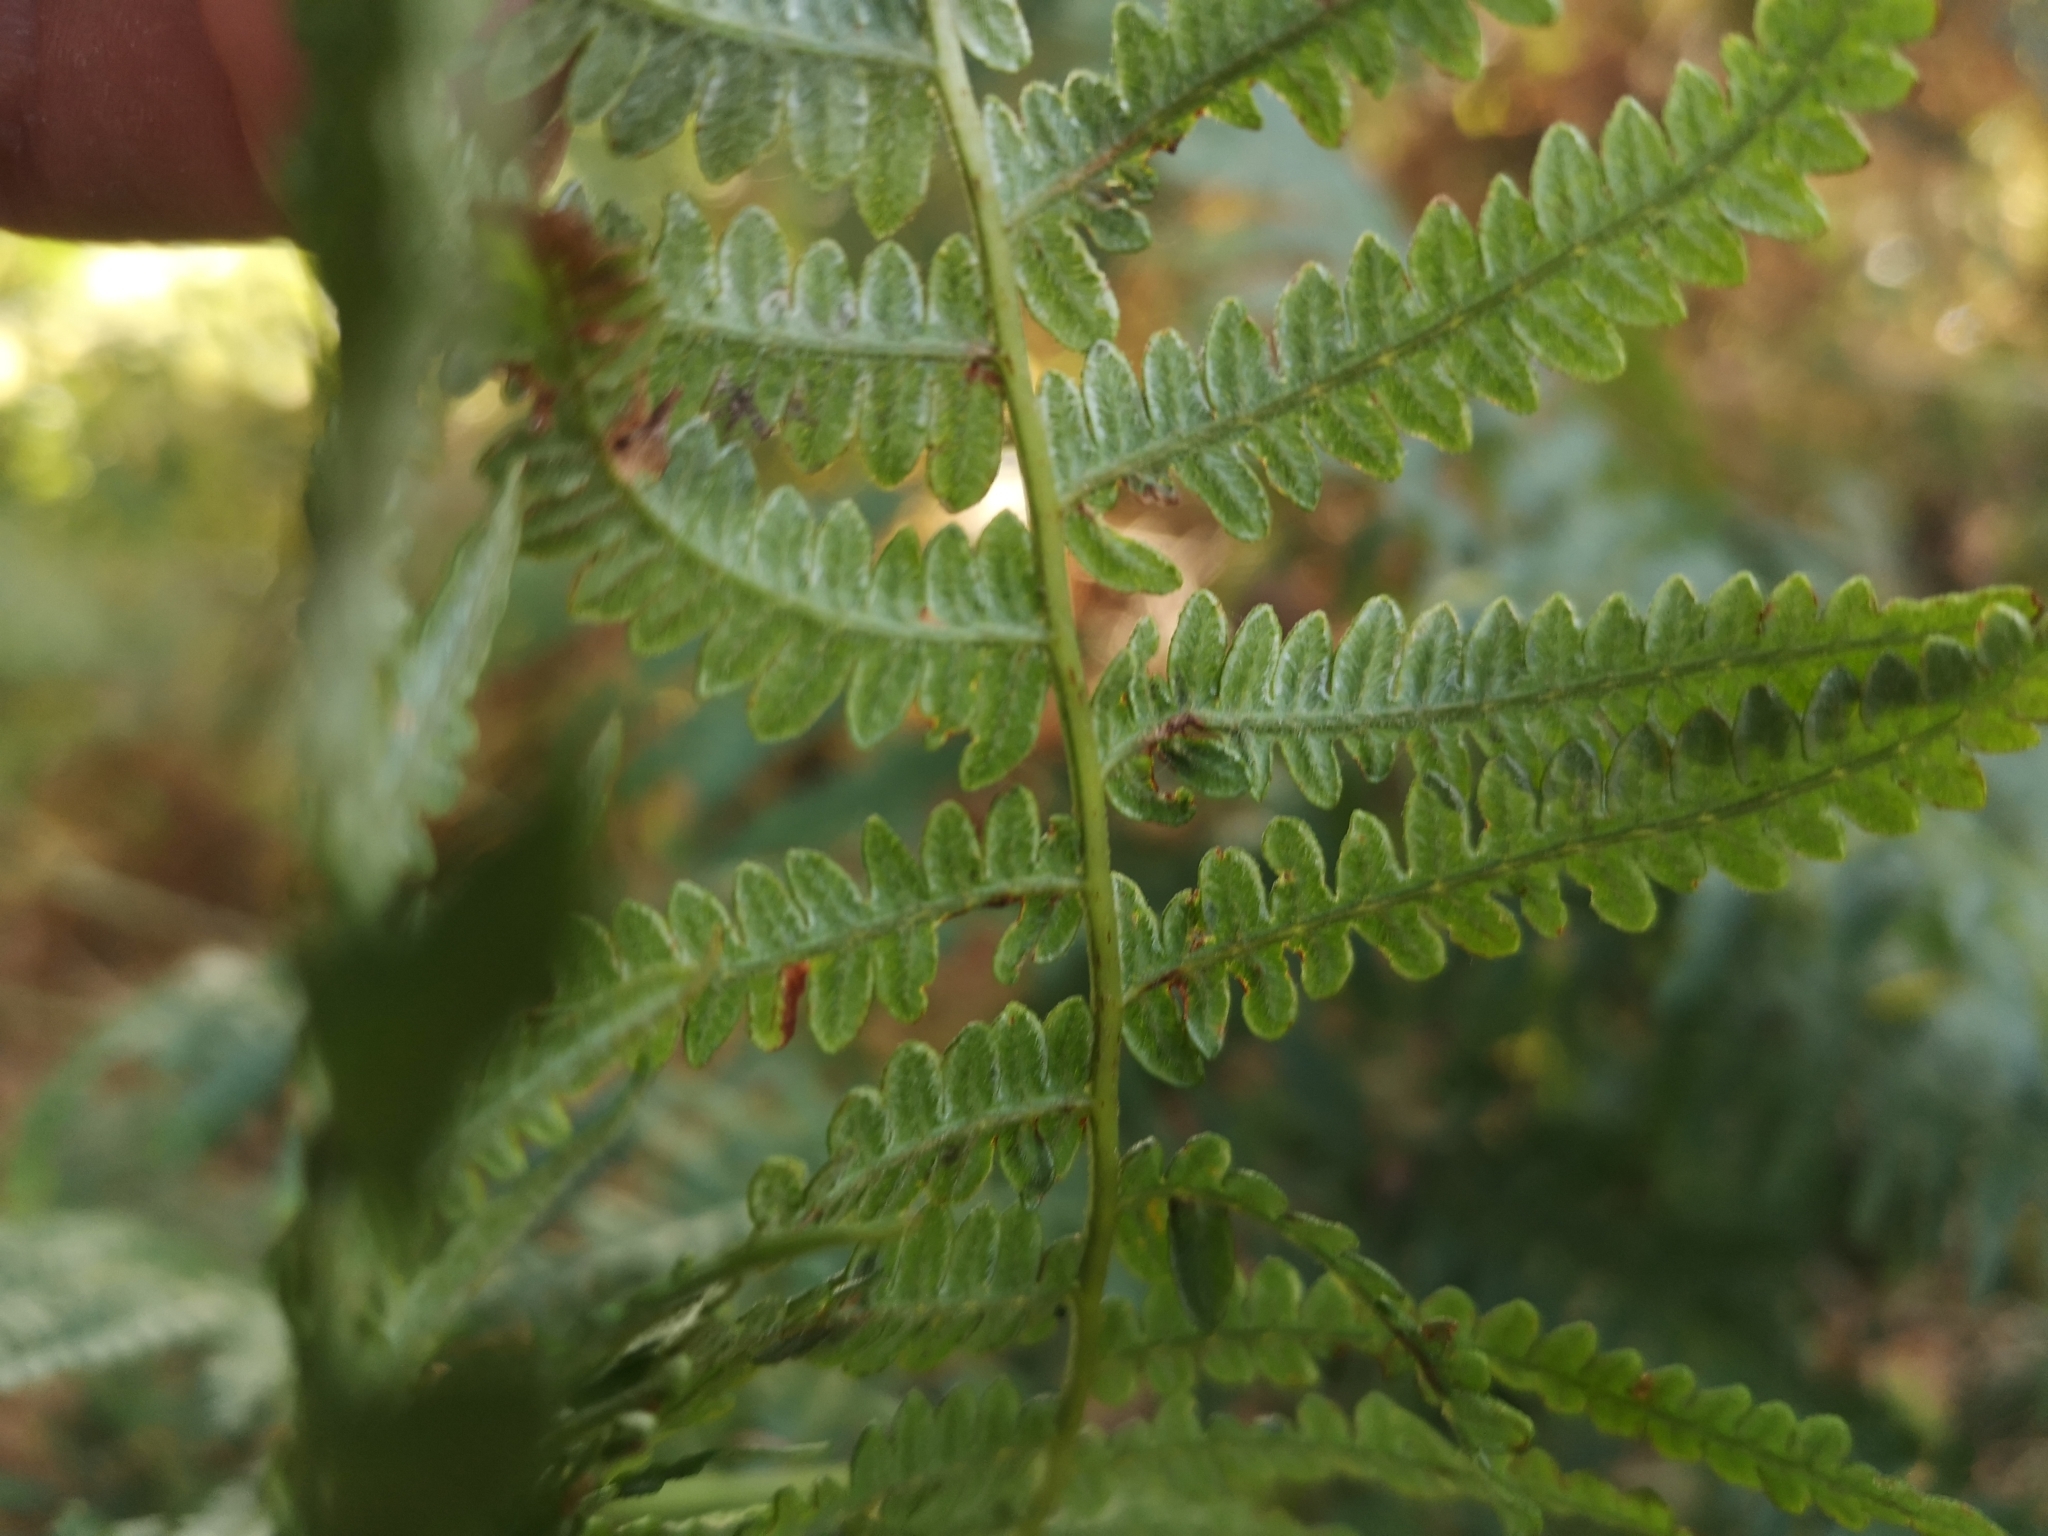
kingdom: Plantae
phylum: Tracheophyta
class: Polypodiopsida
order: Polypodiales
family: Dennstaedtiaceae
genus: Pteridium
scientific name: Pteridium aquilinum
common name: Bracken
